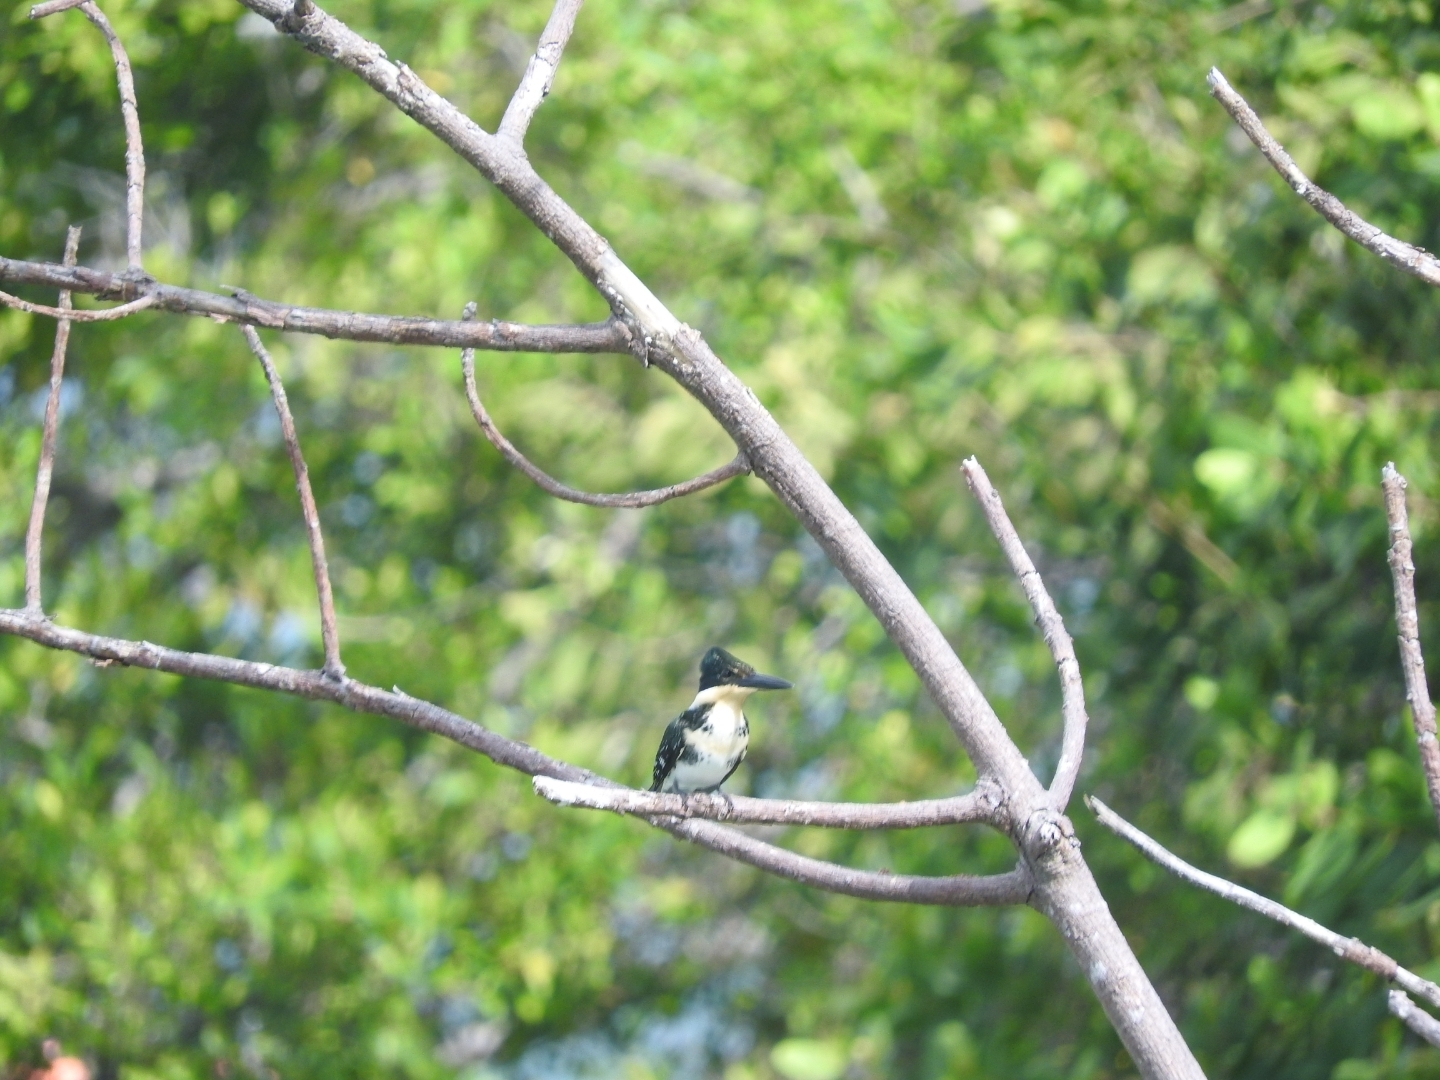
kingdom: Animalia
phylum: Chordata
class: Aves
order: Coraciiformes
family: Alcedinidae
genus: Chloroceryle
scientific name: Chloroceryle americana
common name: Green kingfisher
